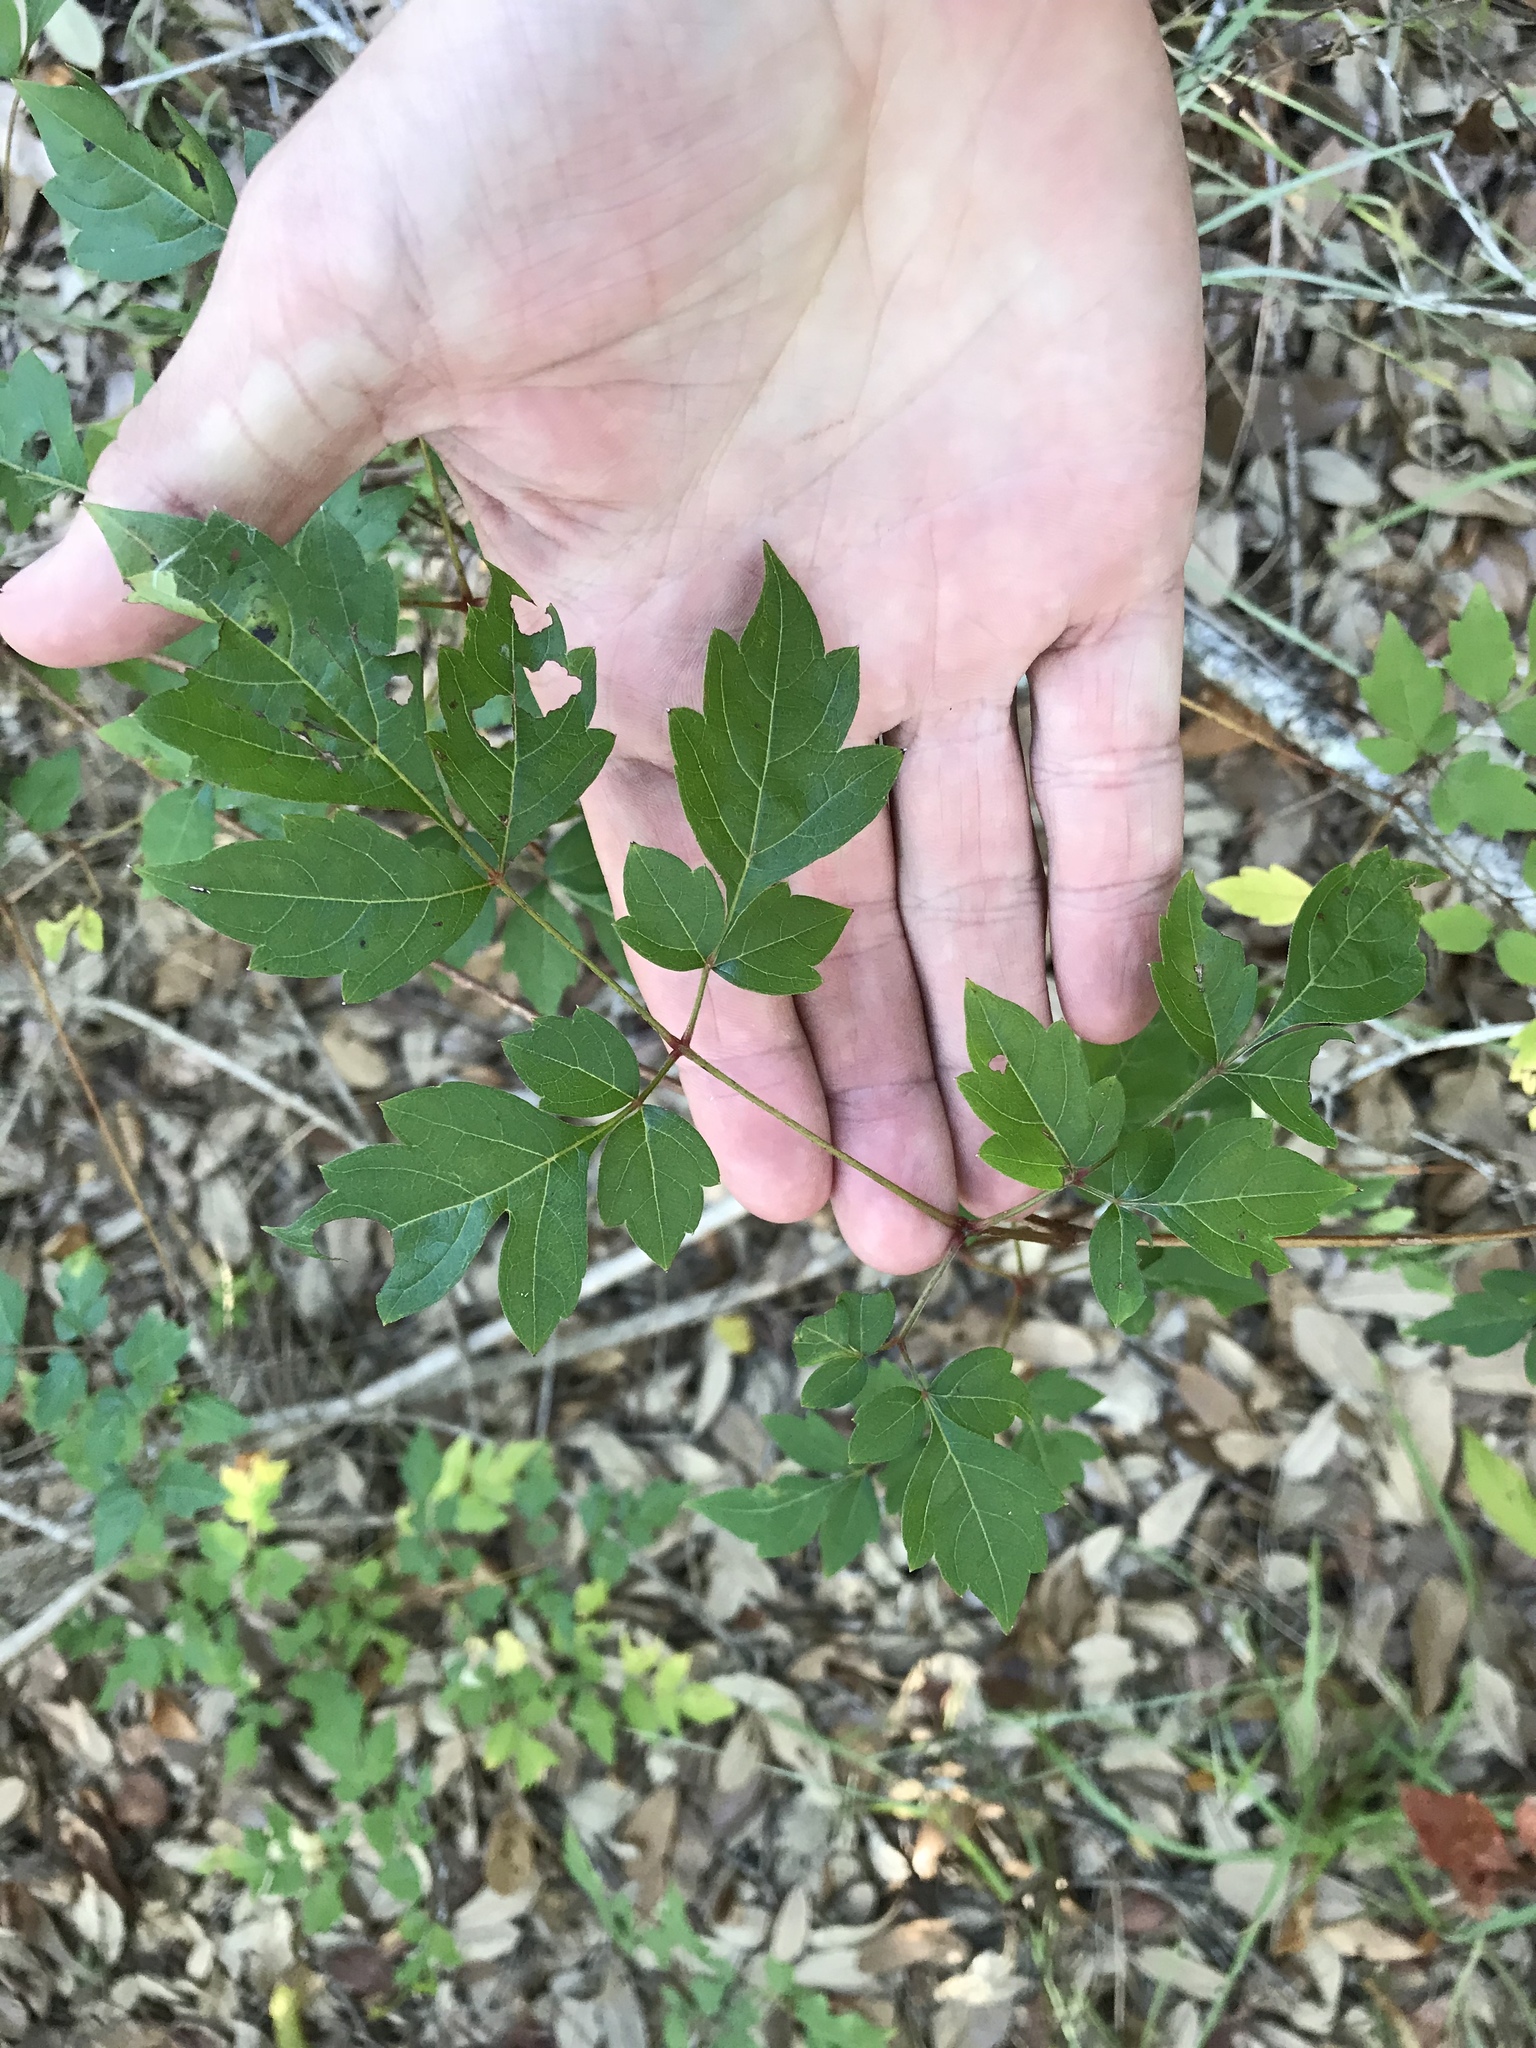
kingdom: Plantae
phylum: Tracheophyta
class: Magnoliopsida
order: Vitales
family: Vitaceae
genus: Nekemias
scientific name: Nekemias arborea
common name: Peppervine
